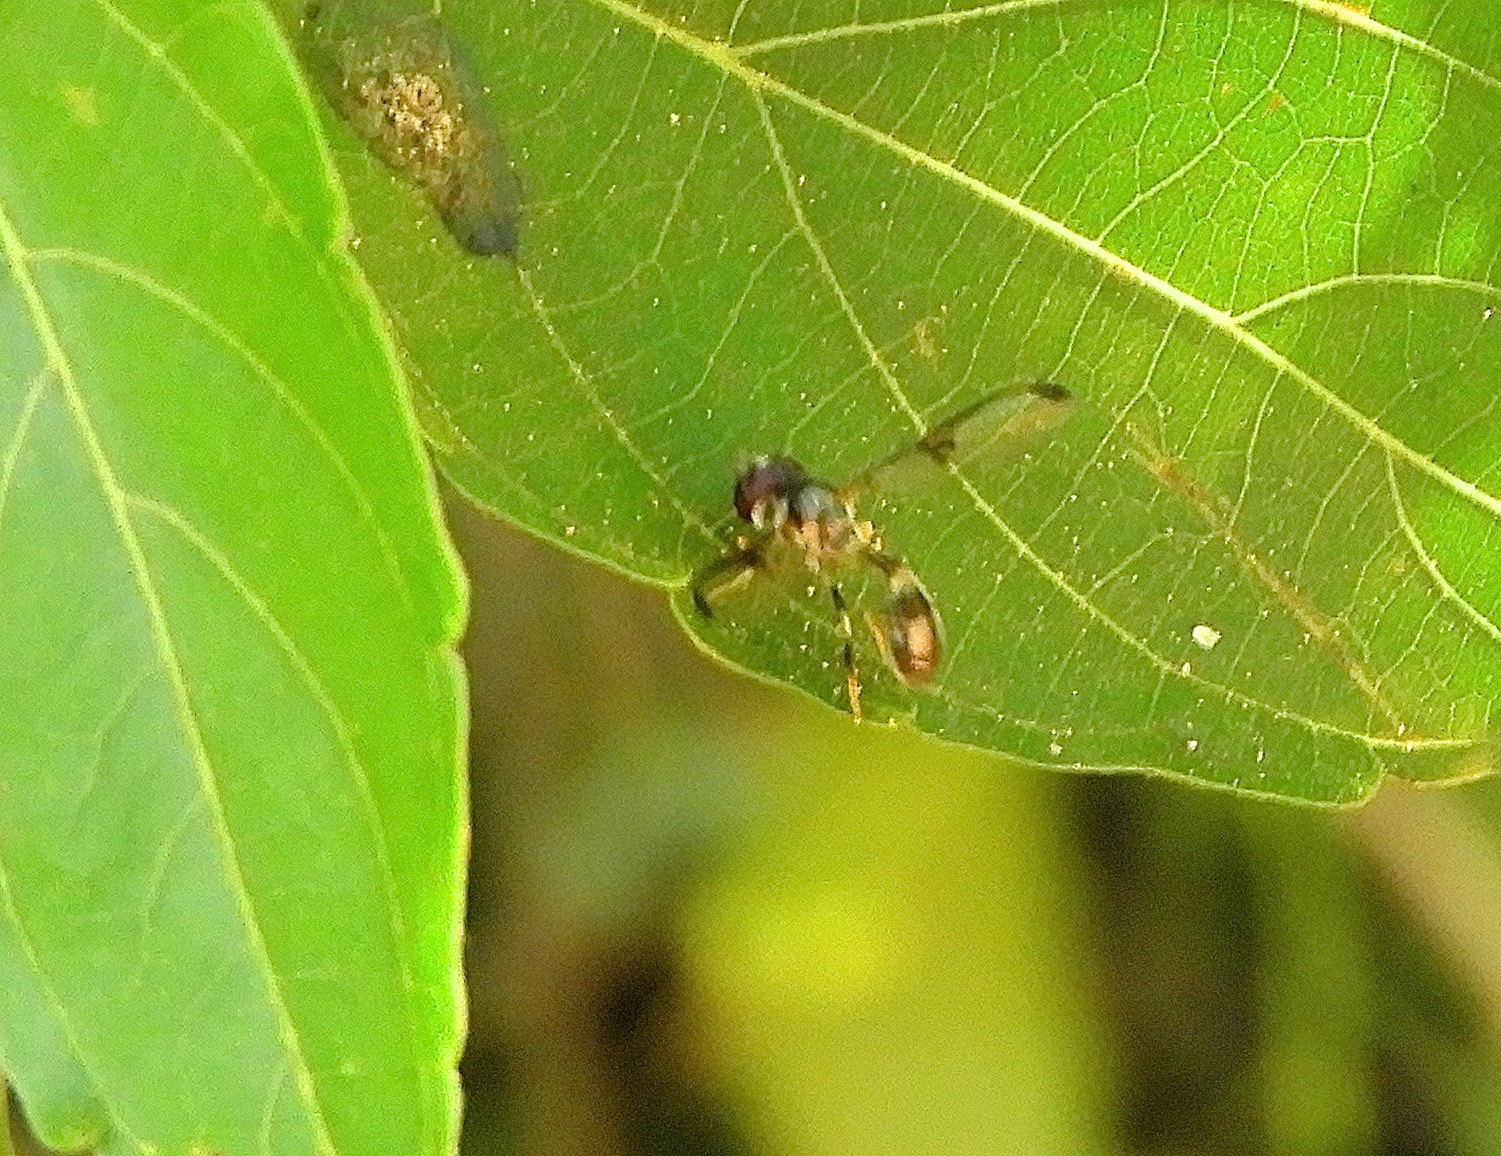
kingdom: Animalia
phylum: Arthropoda
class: Insecta
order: Diptera
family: Syrphidae
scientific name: Syrphidae
